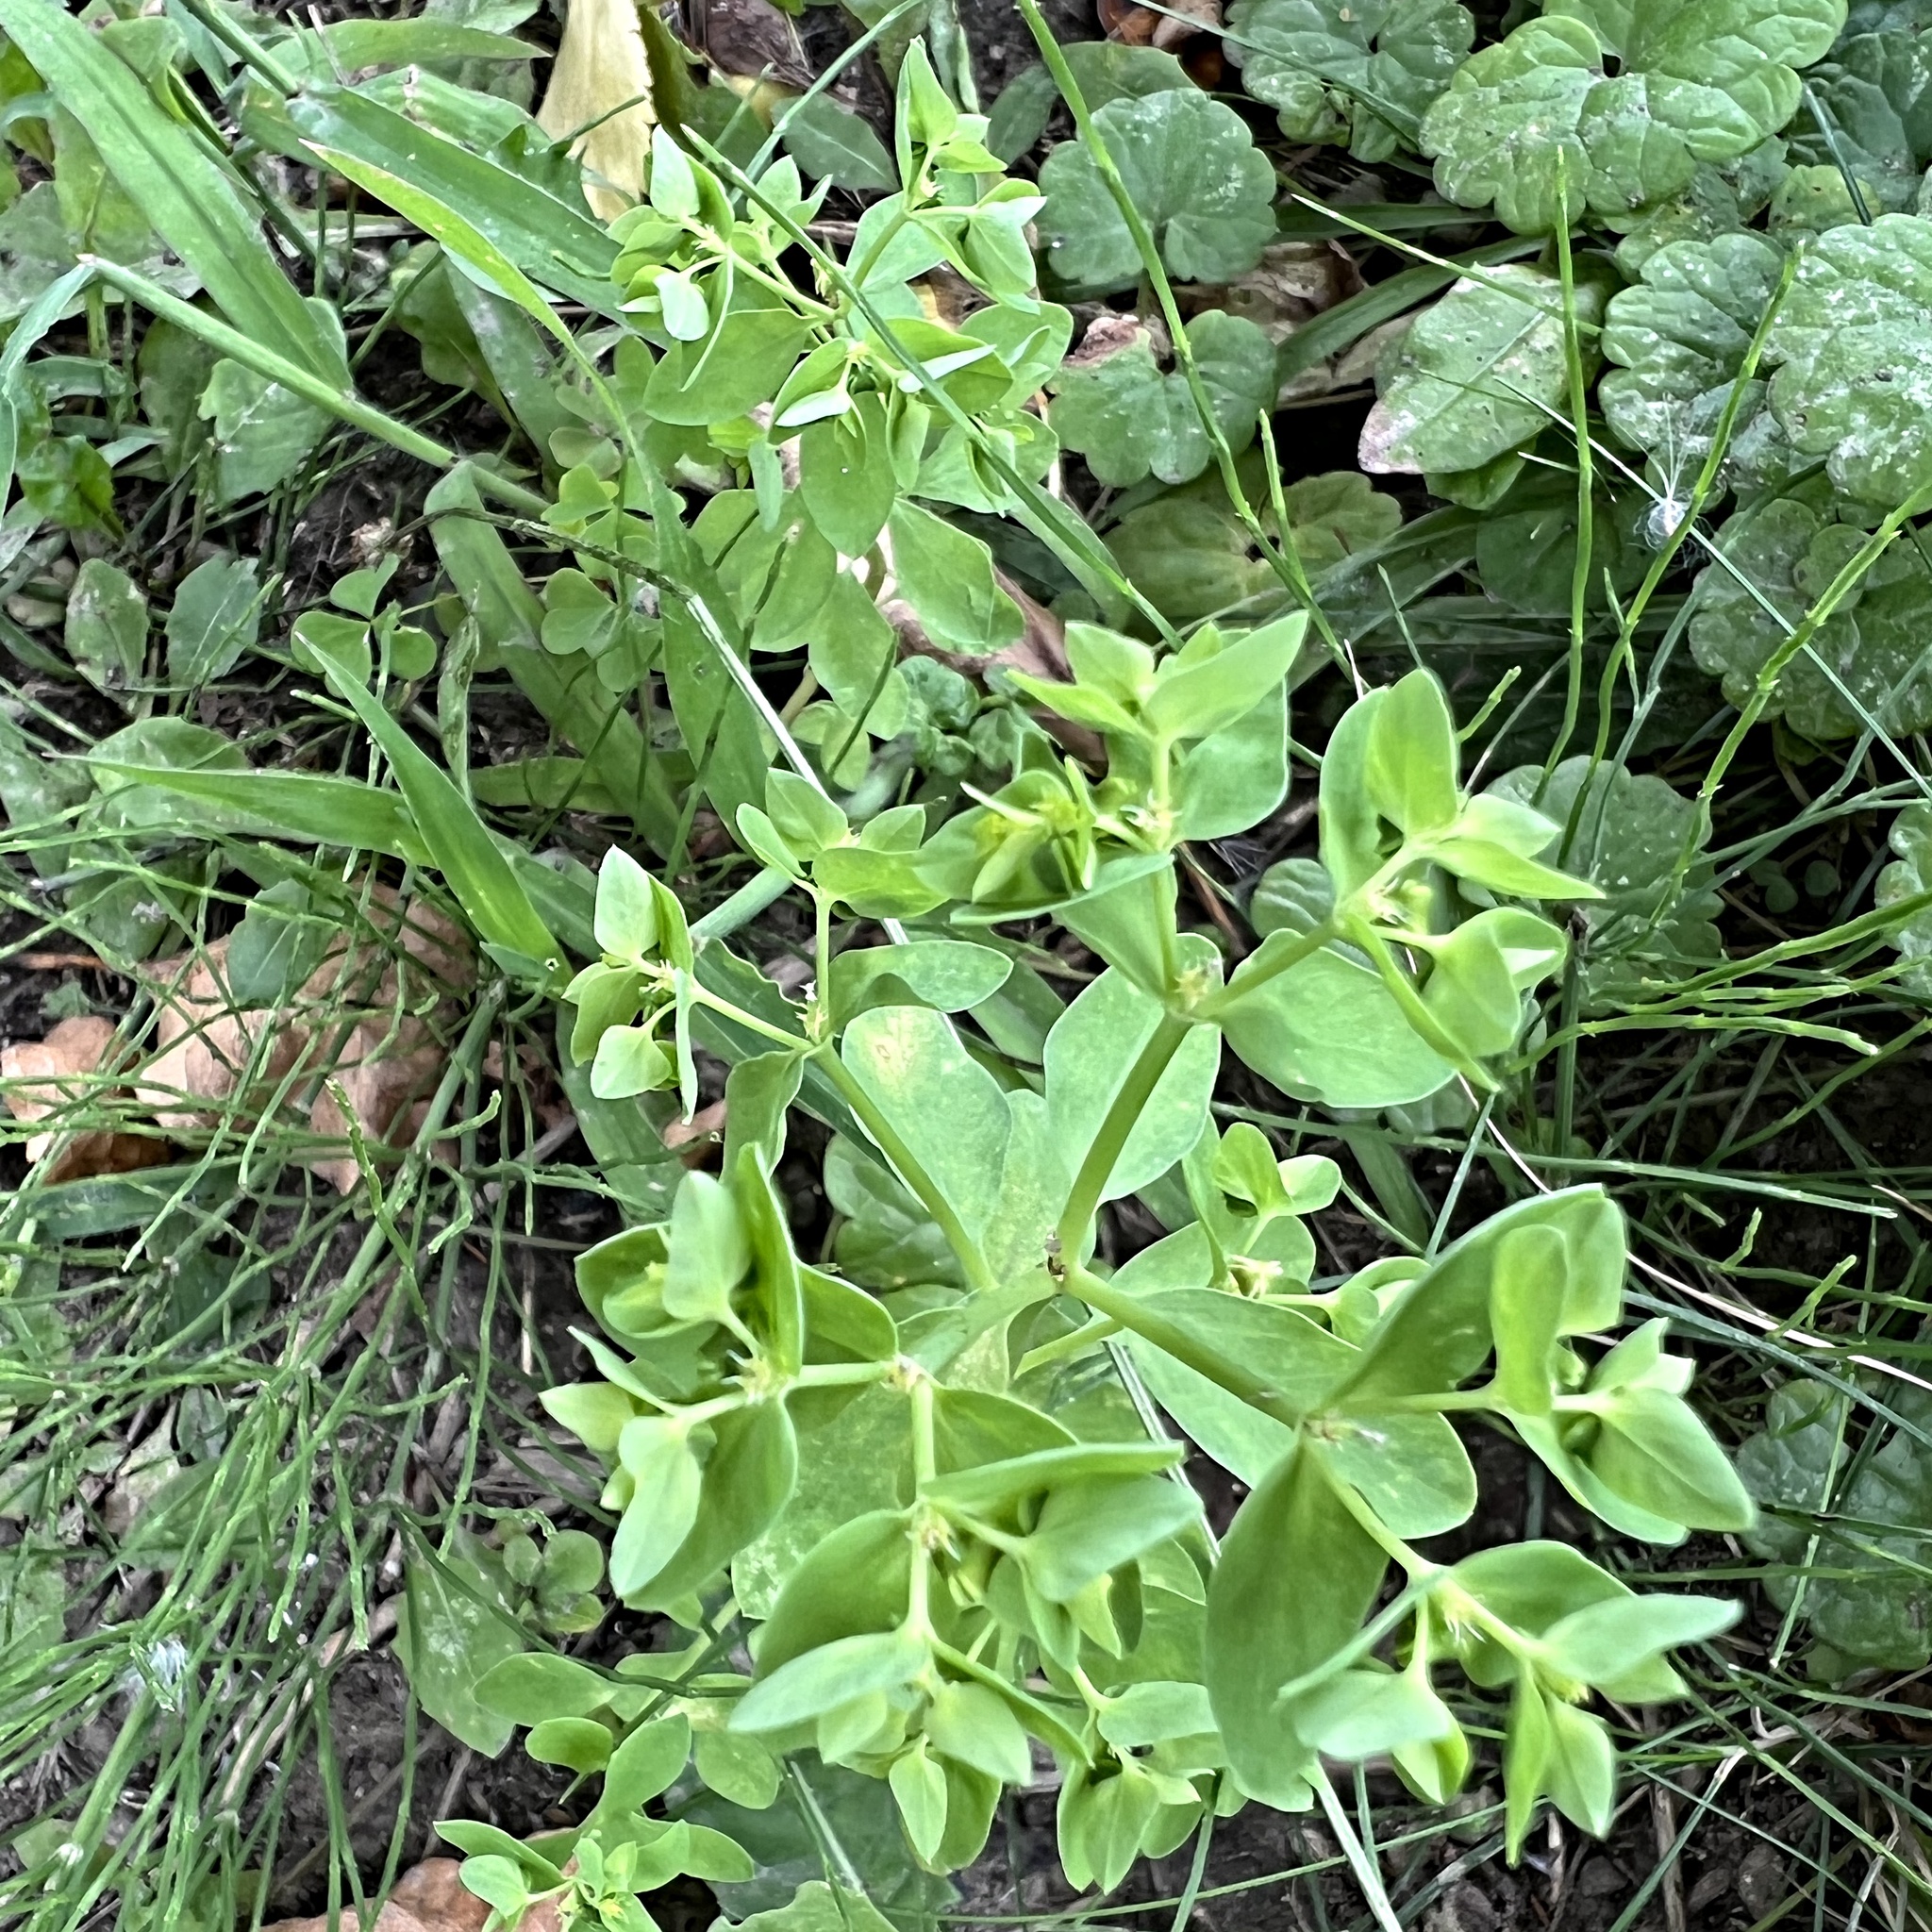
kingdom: Plantae
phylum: Tracheophyta
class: Magnoliopsida
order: Malpighiales
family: Euphorbiaceae
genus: Euphorbia
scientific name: Euphorbia peplus
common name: Petty spurge
